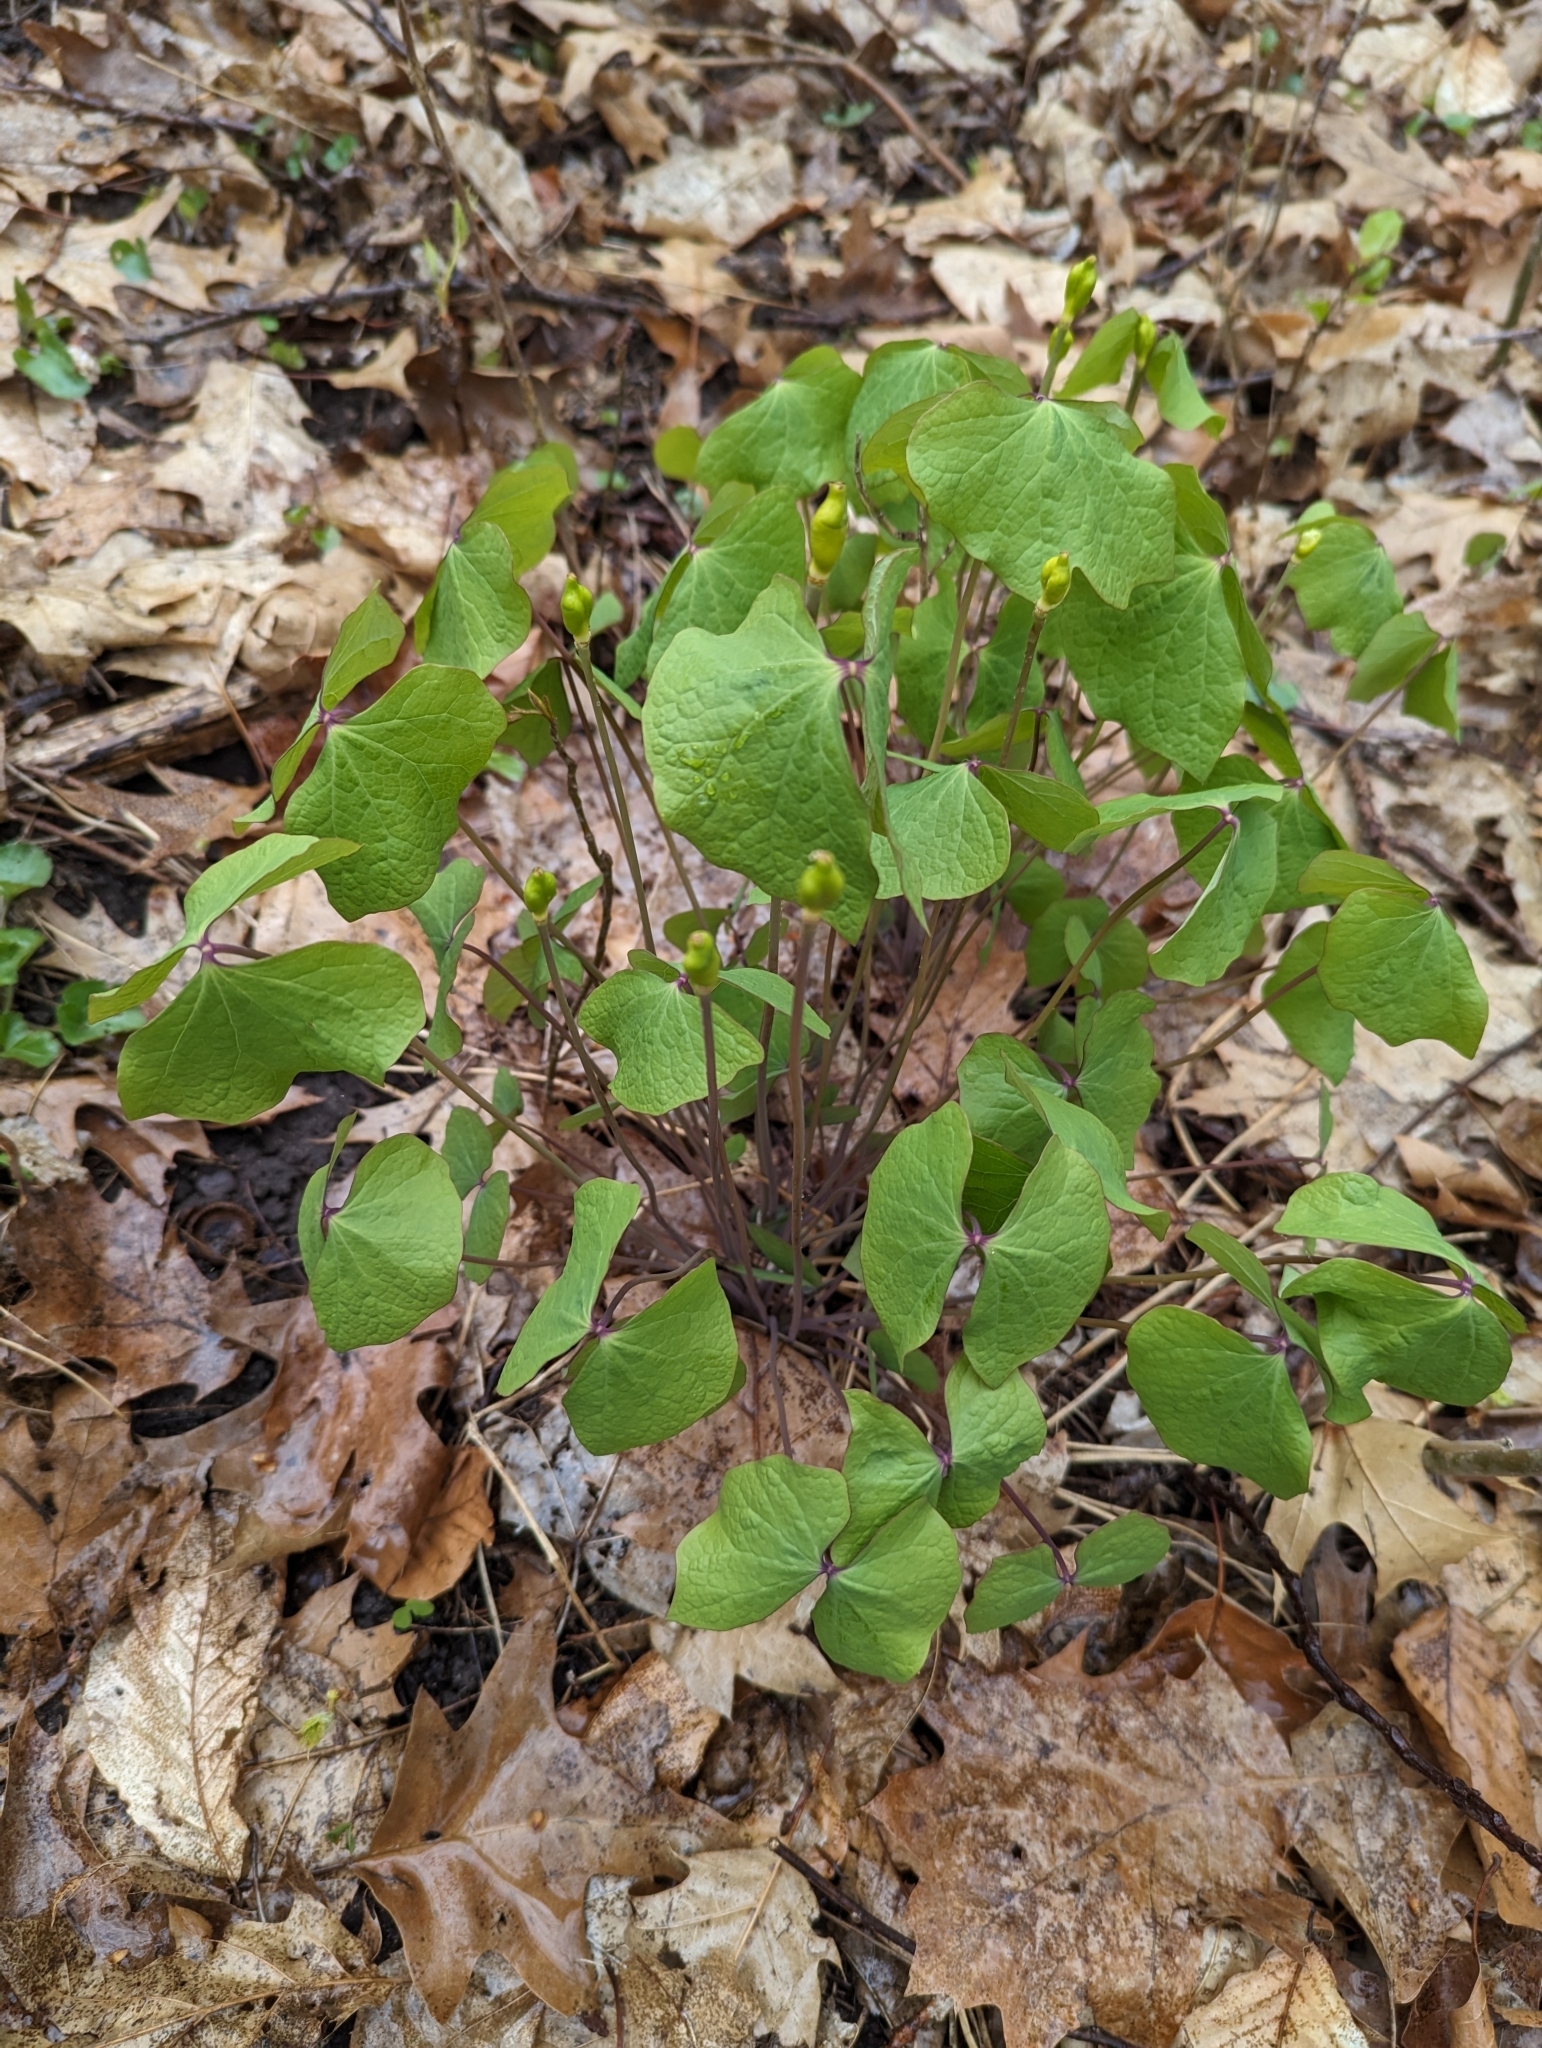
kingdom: Plantae
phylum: Tracheophyta
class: Magnoliopsida
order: Ranunculales
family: Berberidaceae
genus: Jeffersonia
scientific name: Jeffersonia diphylla
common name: Rheumatism-root
